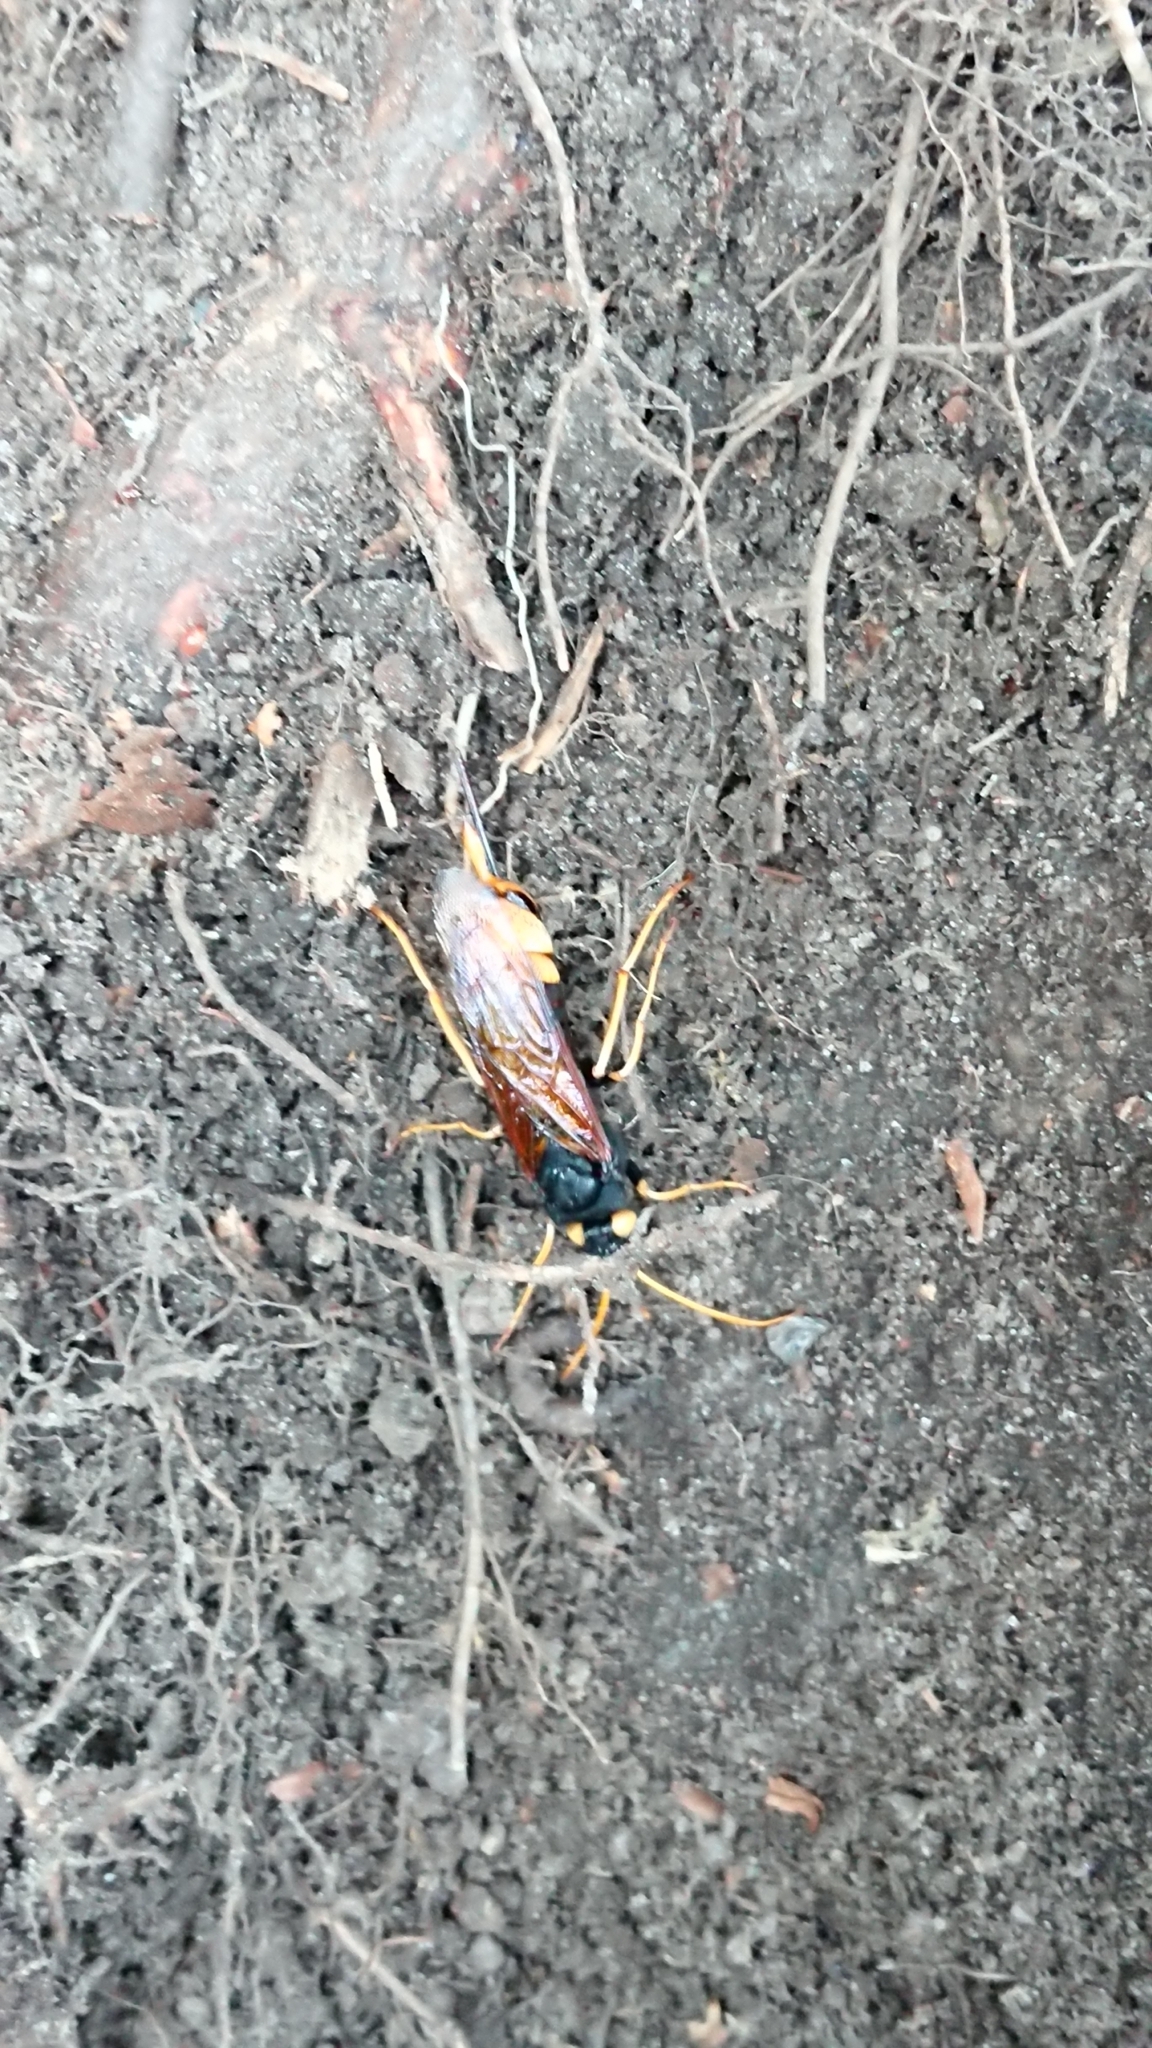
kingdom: Animalia
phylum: Arthropoda
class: Insecta
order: Hymenoptera
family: Siricidae
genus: Urocerus
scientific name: Urocerus gigas
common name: Giant woodwasp
